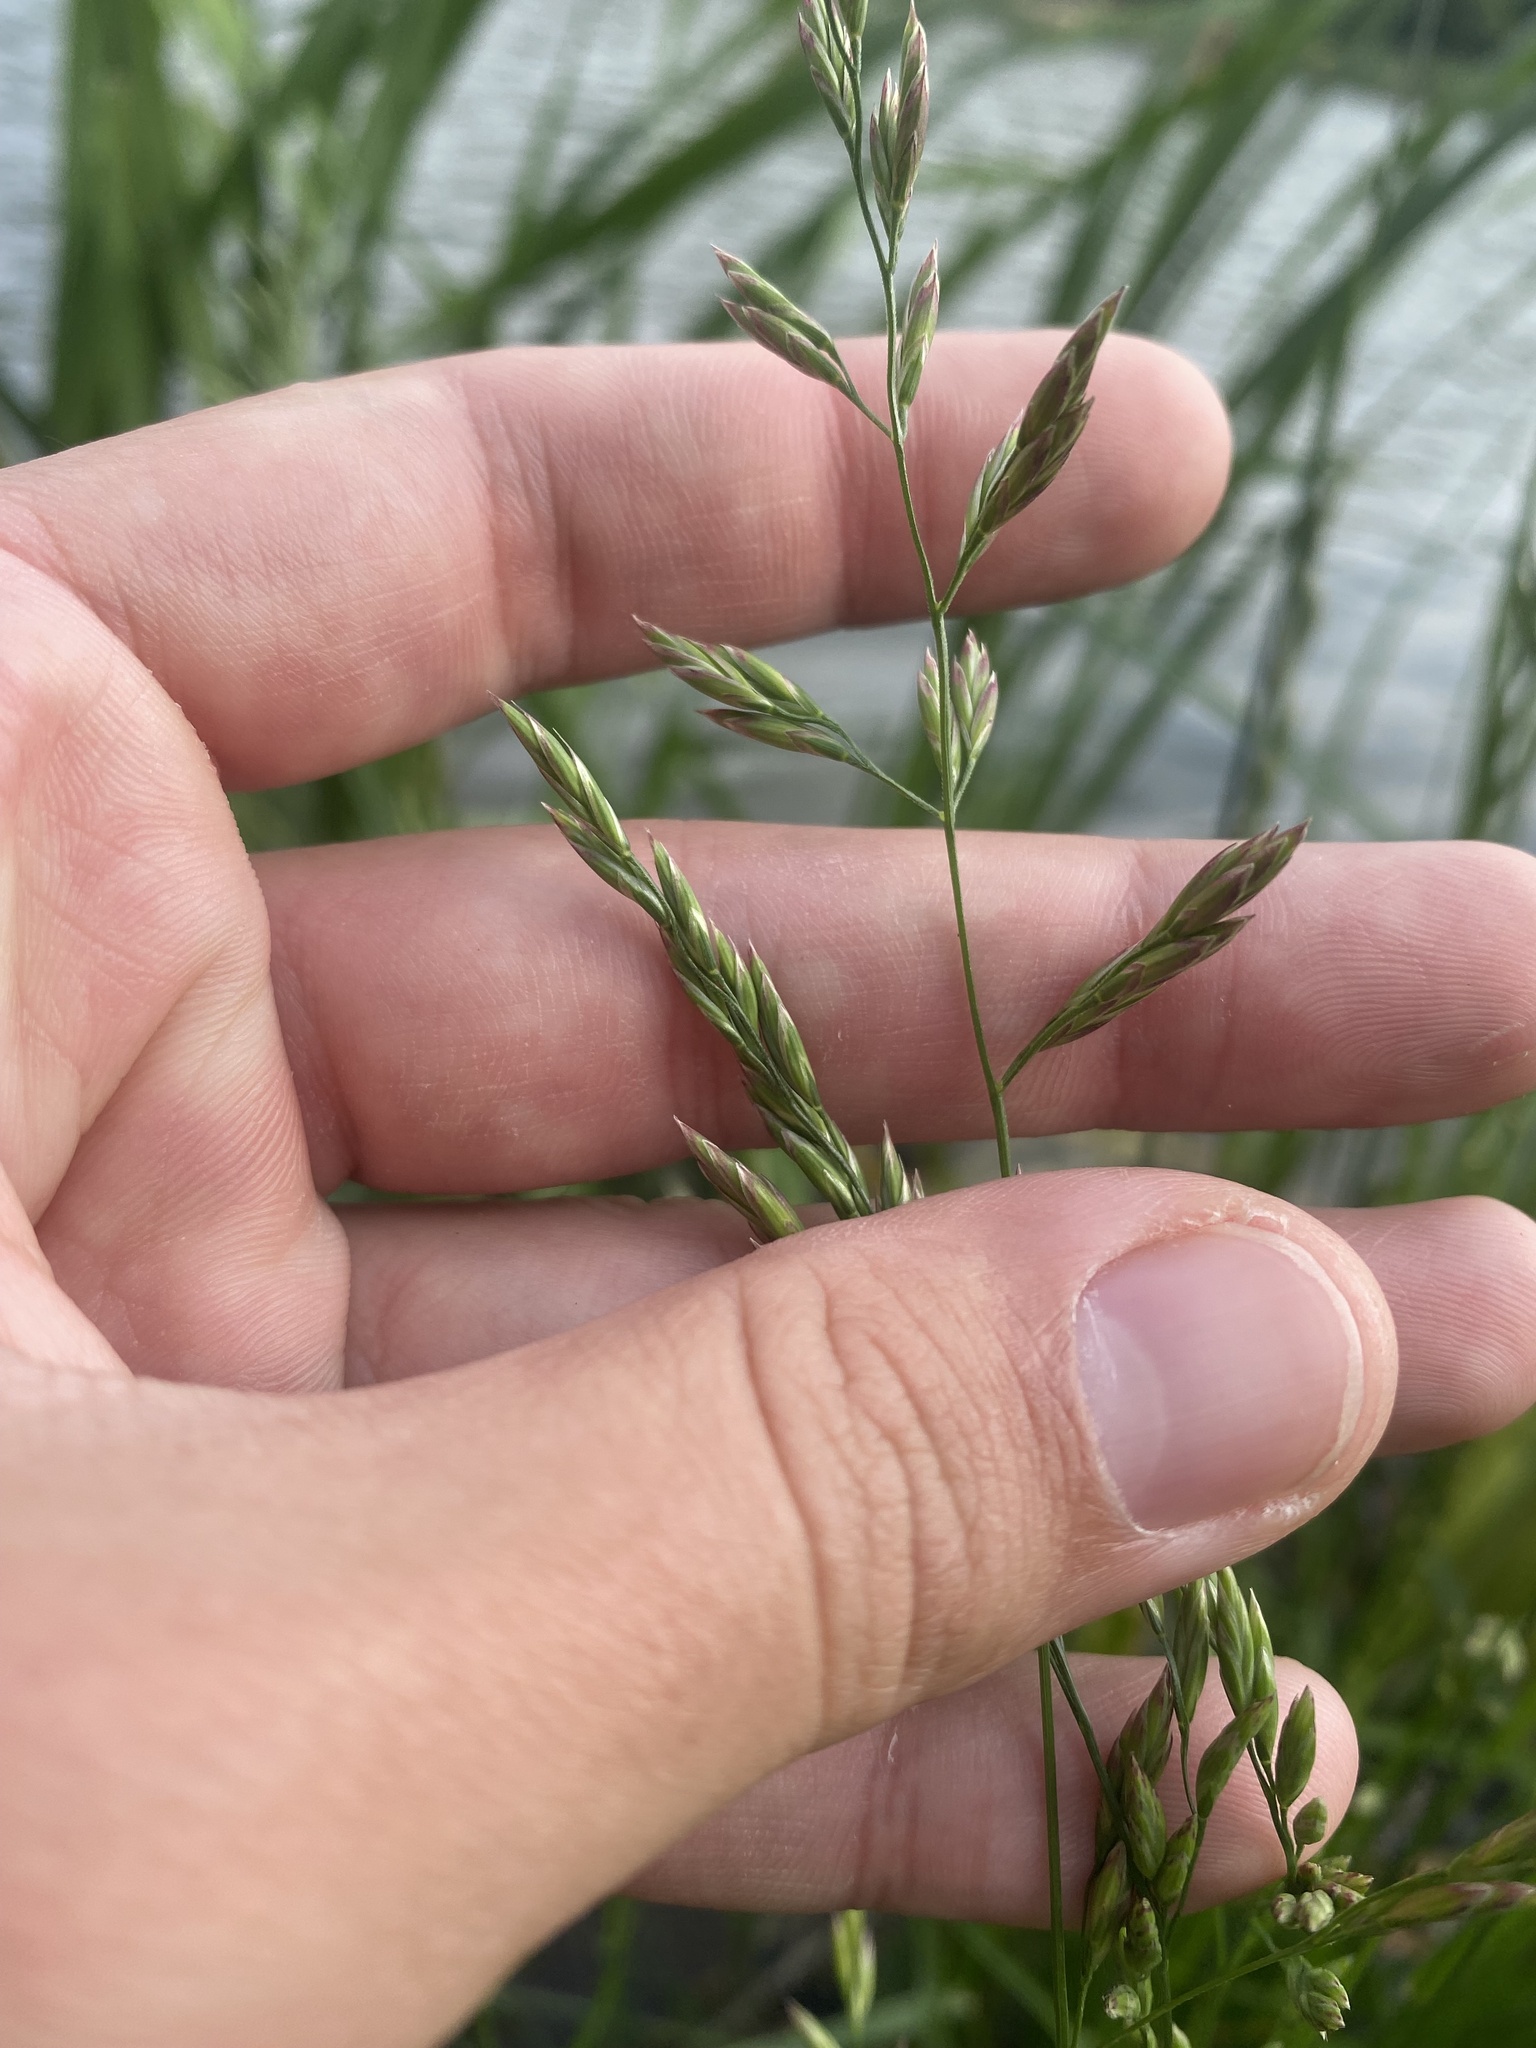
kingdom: Plantae
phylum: Tracheophyta
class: Liliopsida
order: Poales
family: Poaceae
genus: Lolium
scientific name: Lolium arundinaceum
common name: Reed fescue
